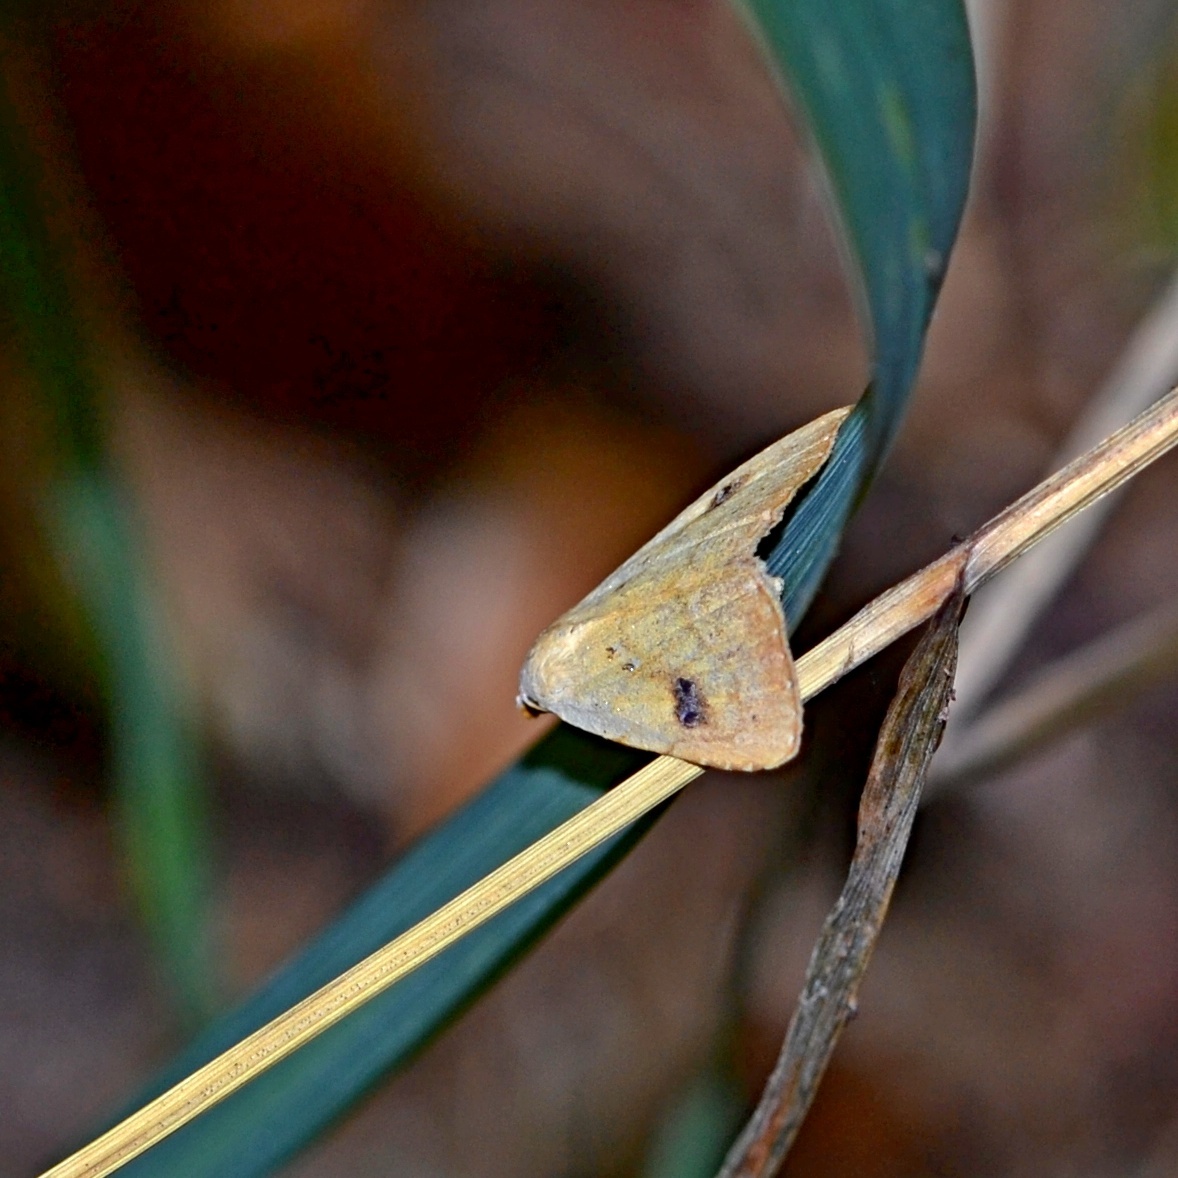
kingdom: Animalia
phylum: Arthropoda
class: Insecta
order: Lepidoptera
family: Erebidae
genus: Rivula
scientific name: Rivula sericealis
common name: Straw dot
